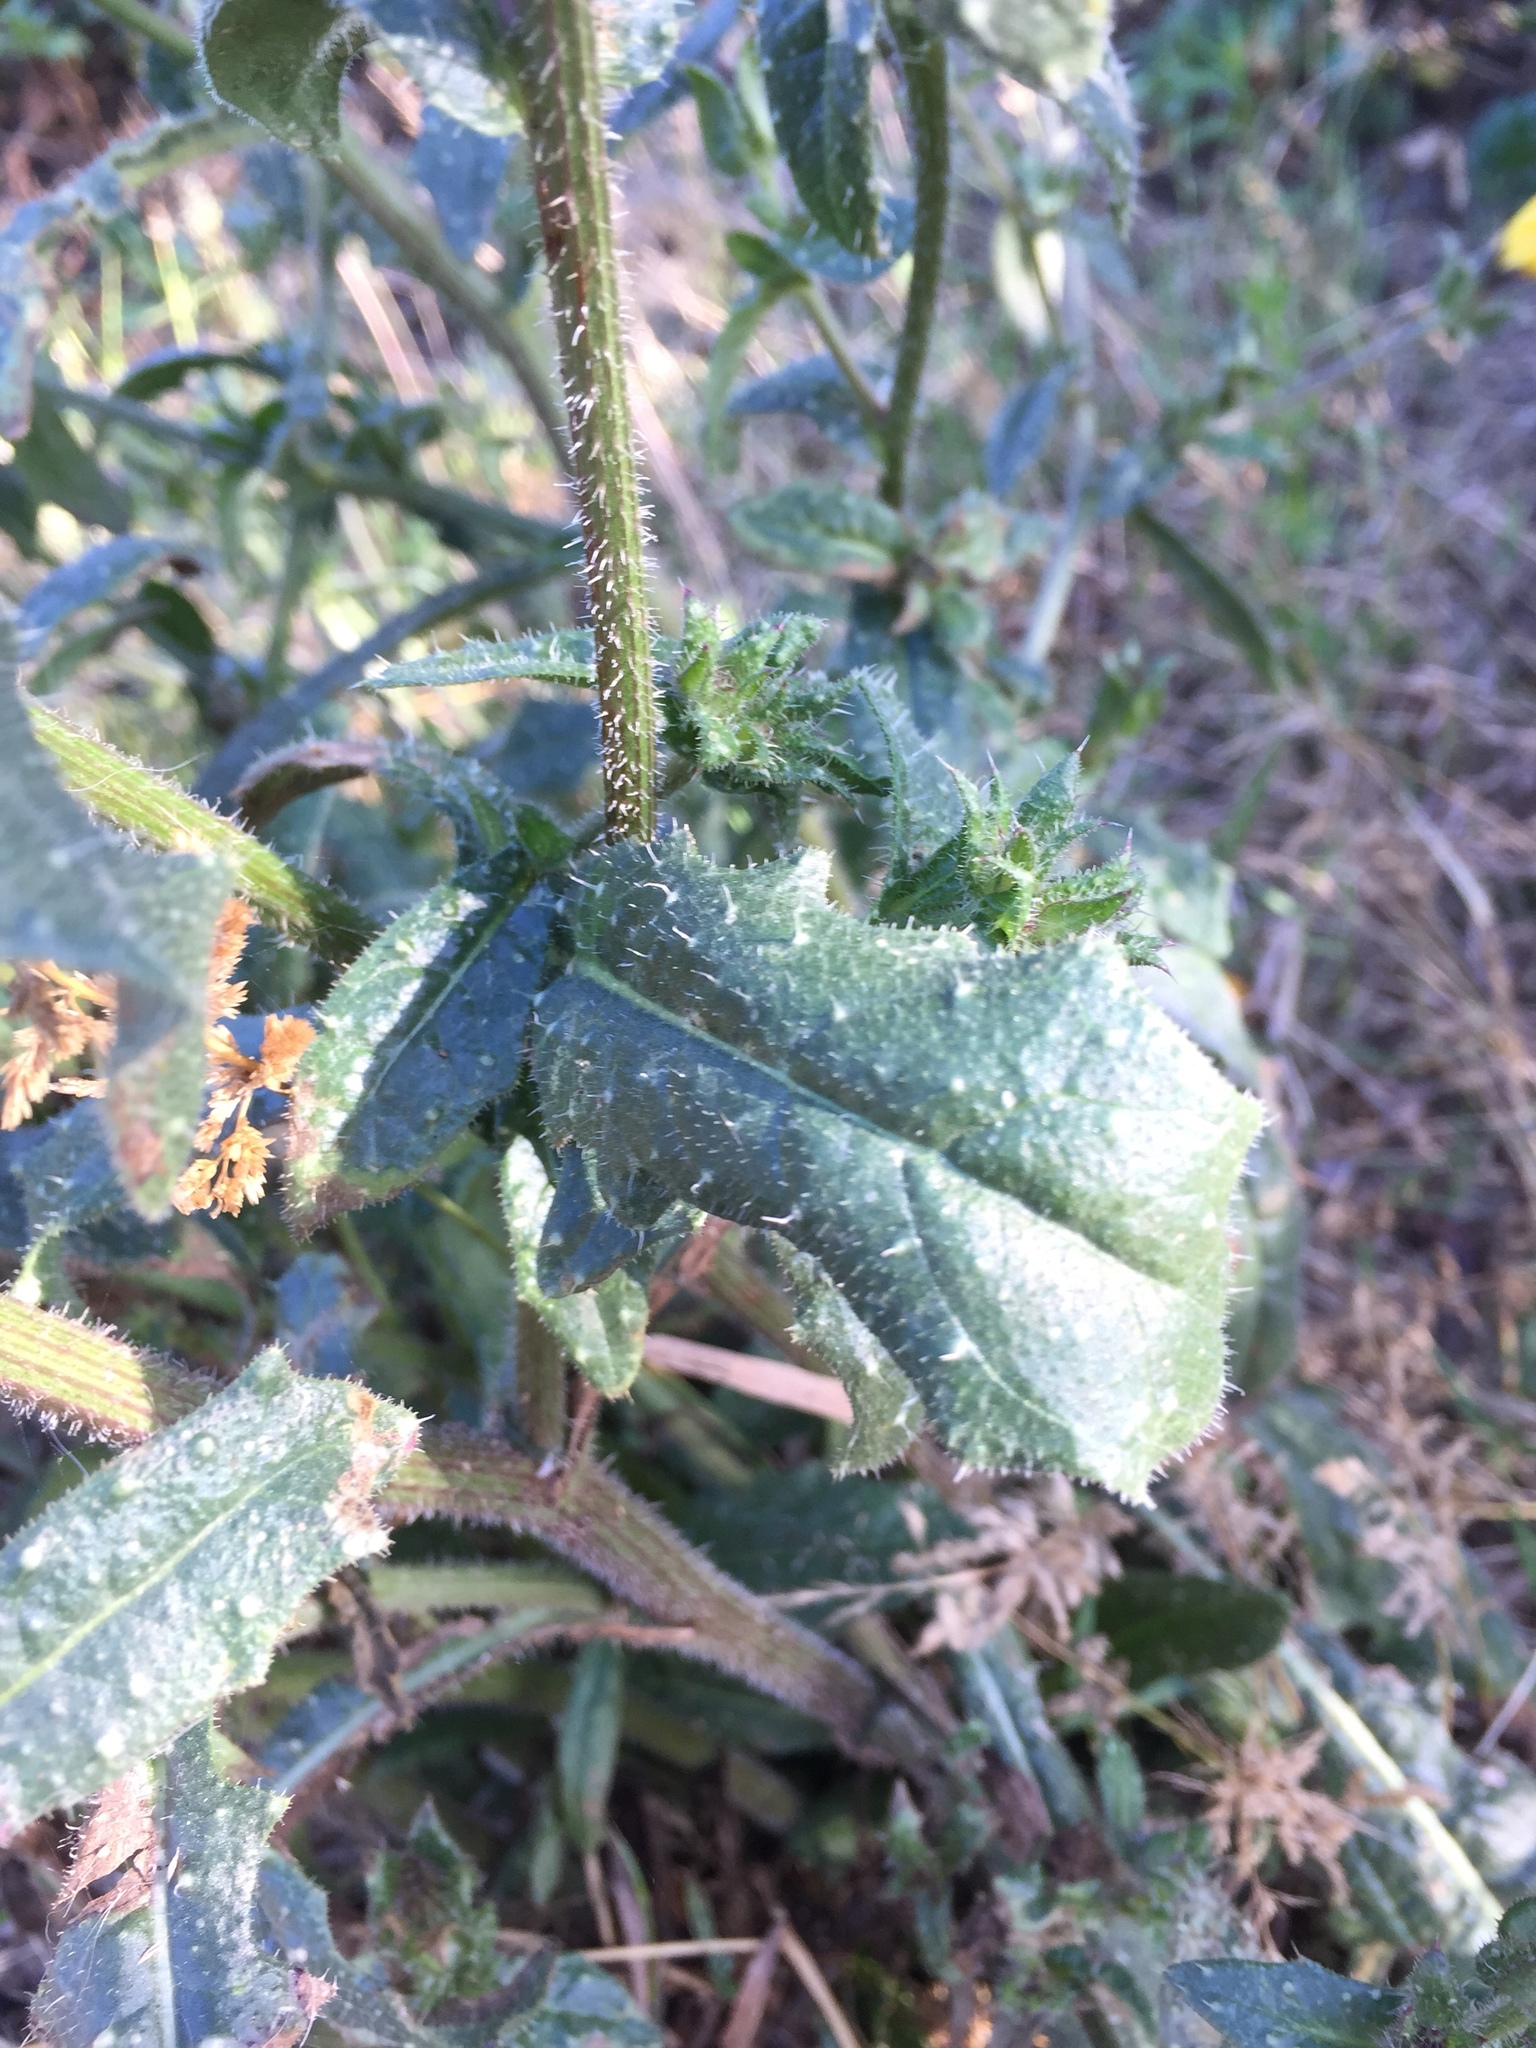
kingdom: Plantae
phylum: Tracheophyta
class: Magnoliopsida
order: Asterales
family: Asteraceae
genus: Helminthotheca
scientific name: Helminthotheca echioides
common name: Ox-tongue
